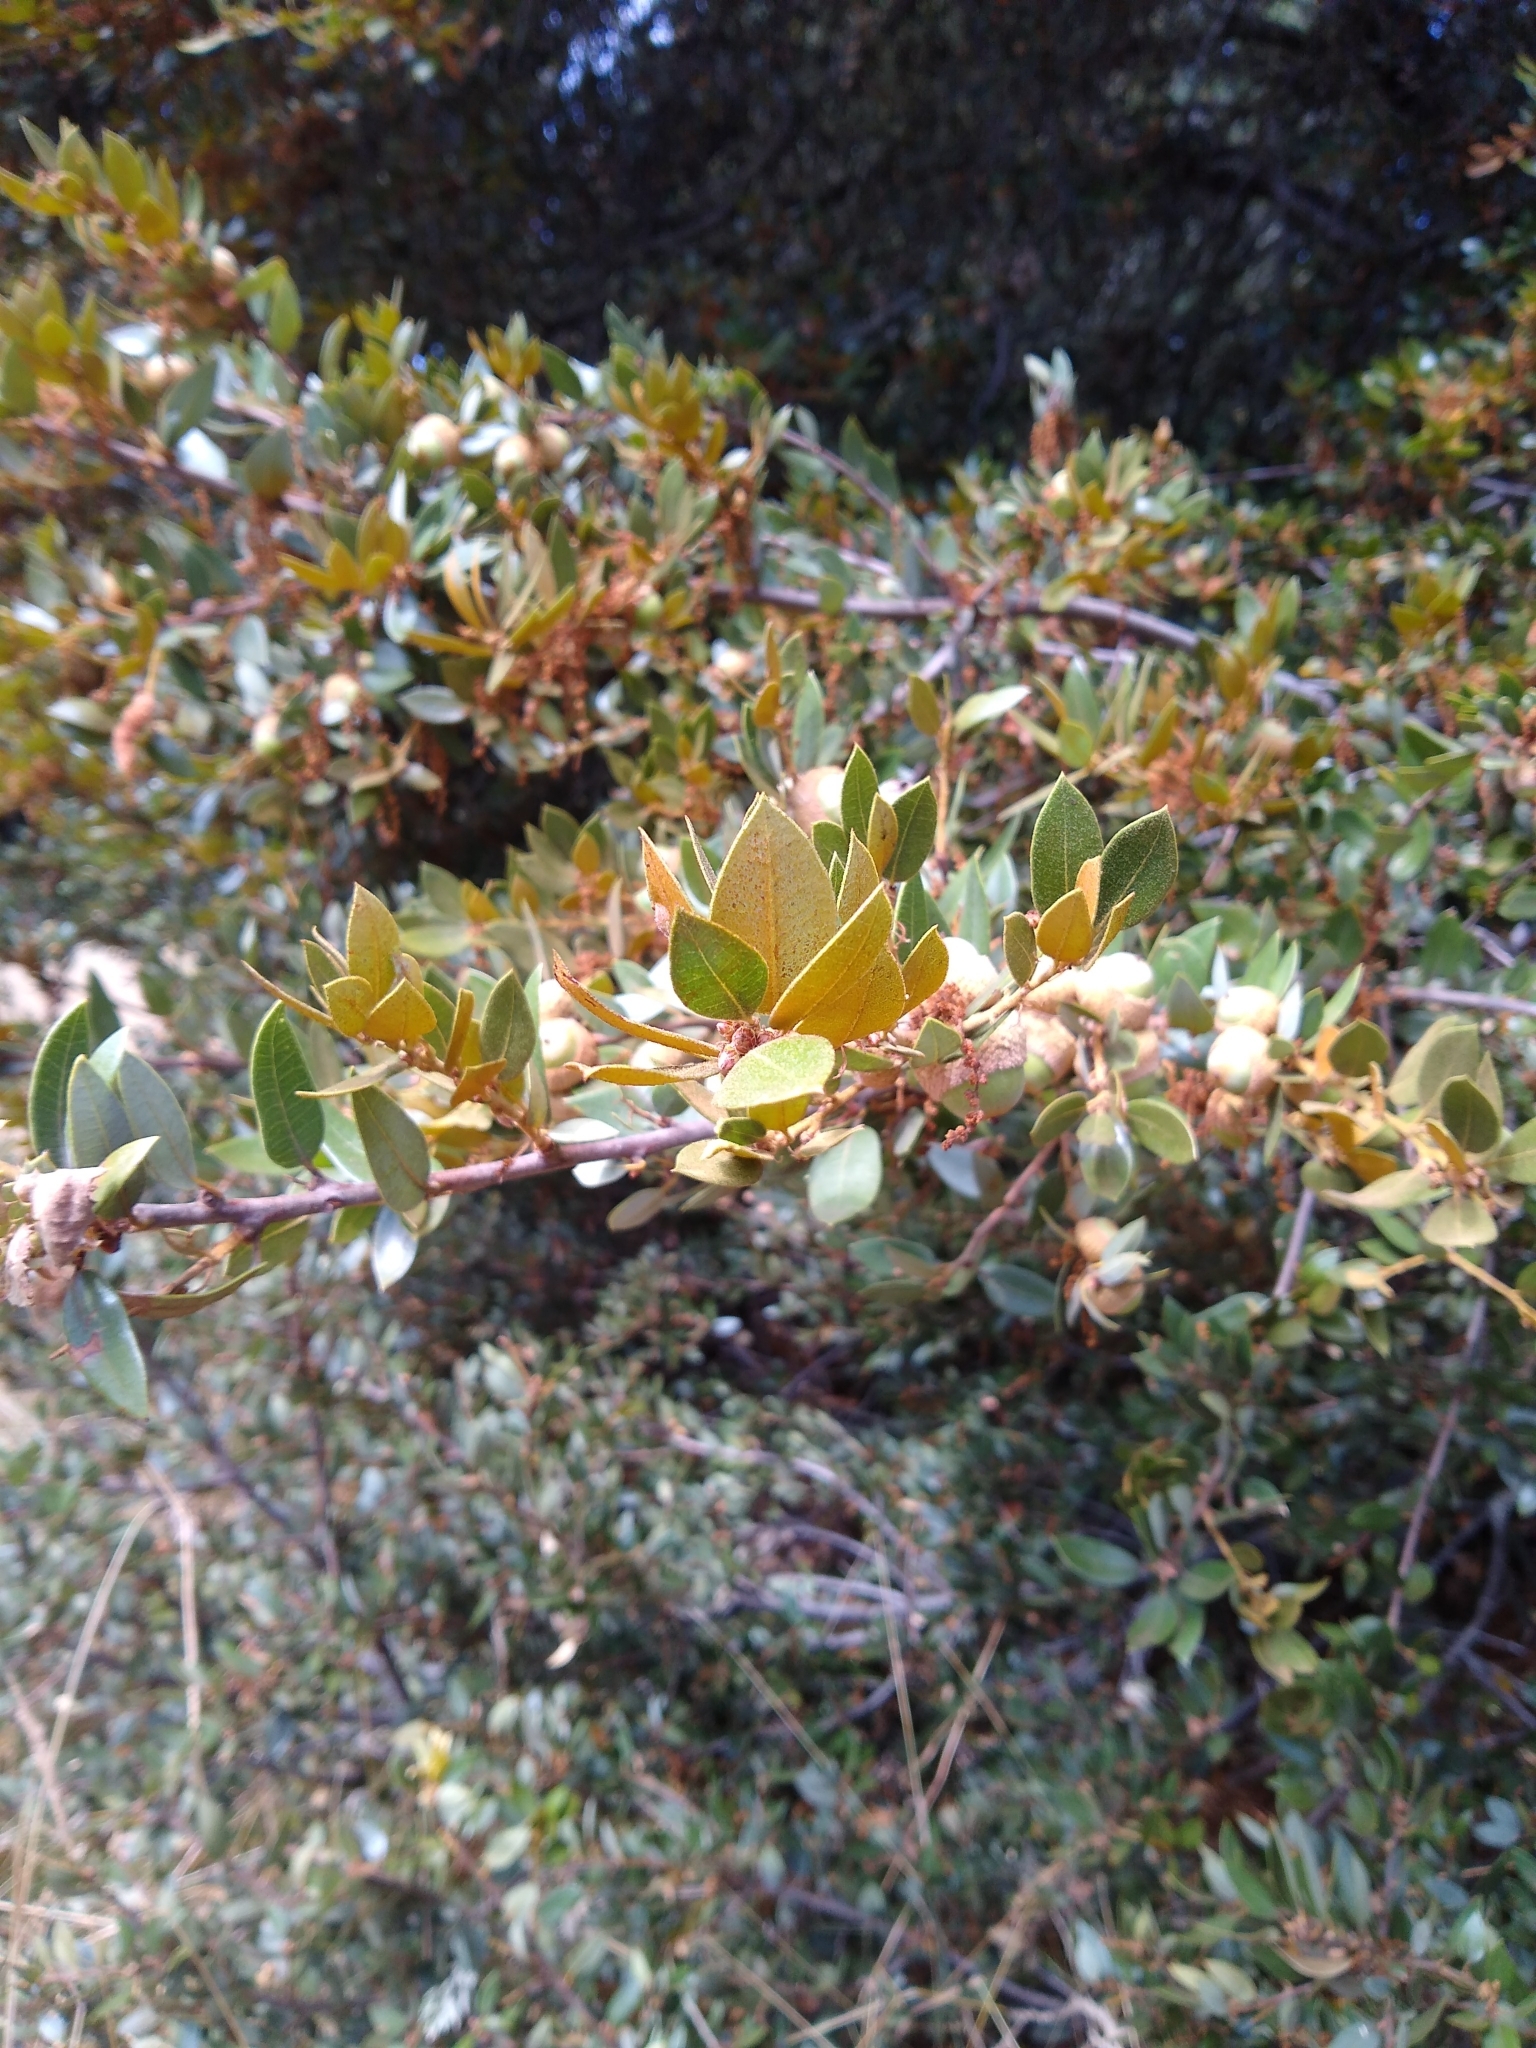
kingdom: Plantae
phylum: Tracheophyta
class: Magnoliopsida
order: Fagales
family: Fagaceae
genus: Quercus
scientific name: Quercus chrysolepis
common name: Canyon live oak
